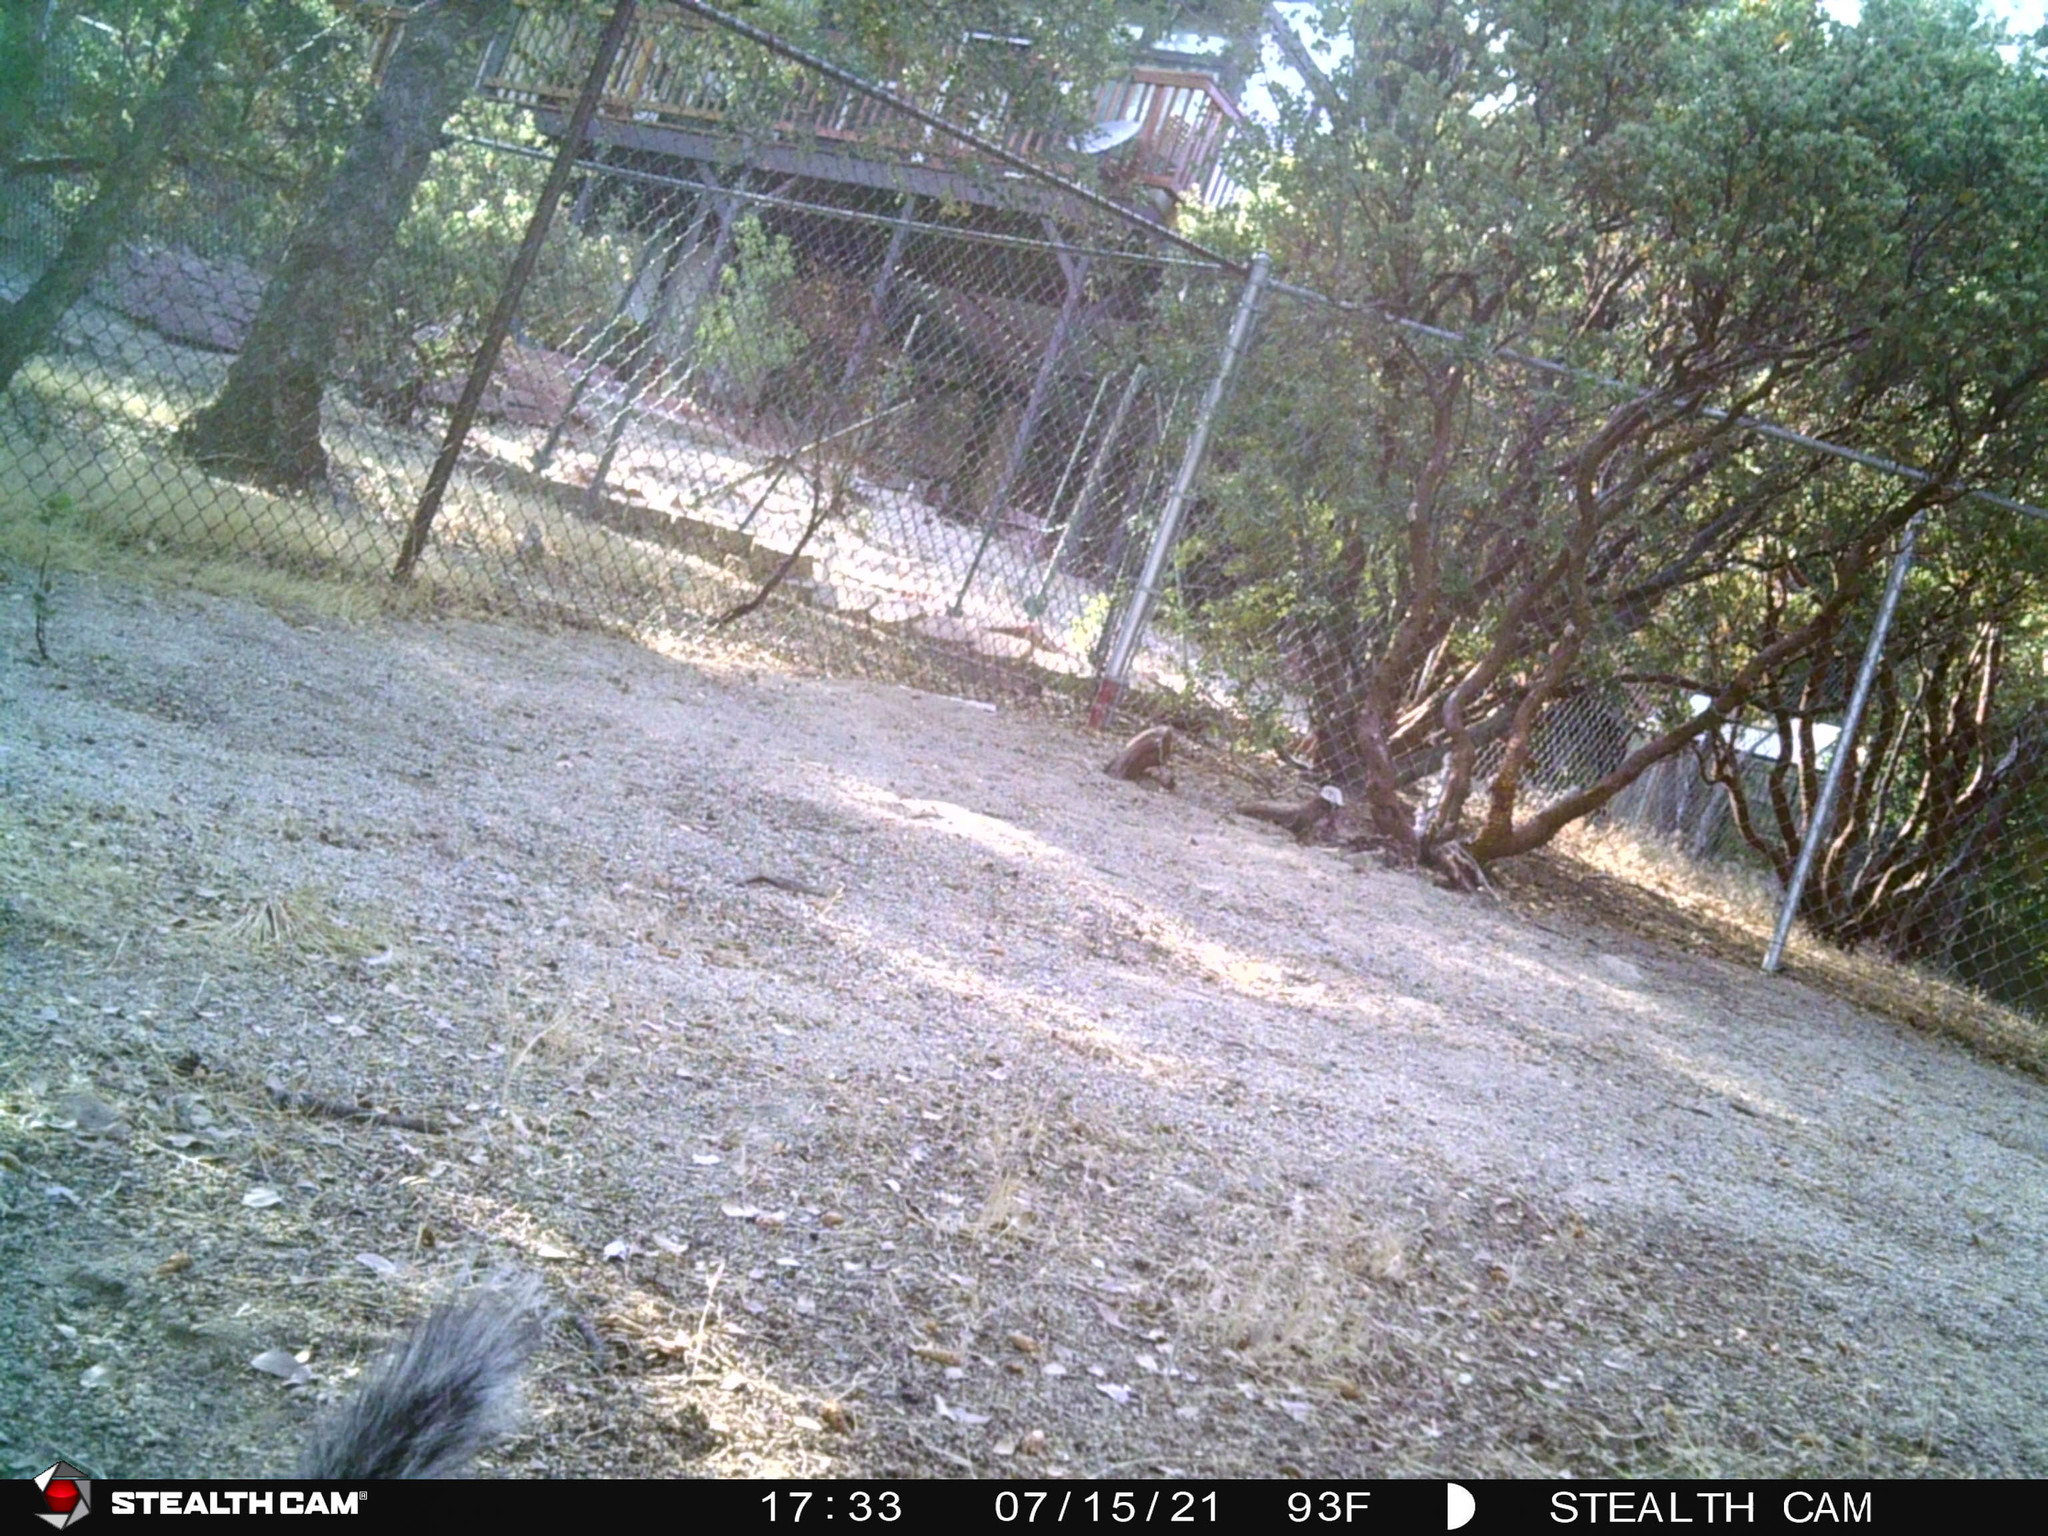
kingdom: Animalia
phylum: Chordata
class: Mammalia
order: Rodentia
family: Sciuridae
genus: Sciurus
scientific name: Sciurus griseus
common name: Western gray squirrel
